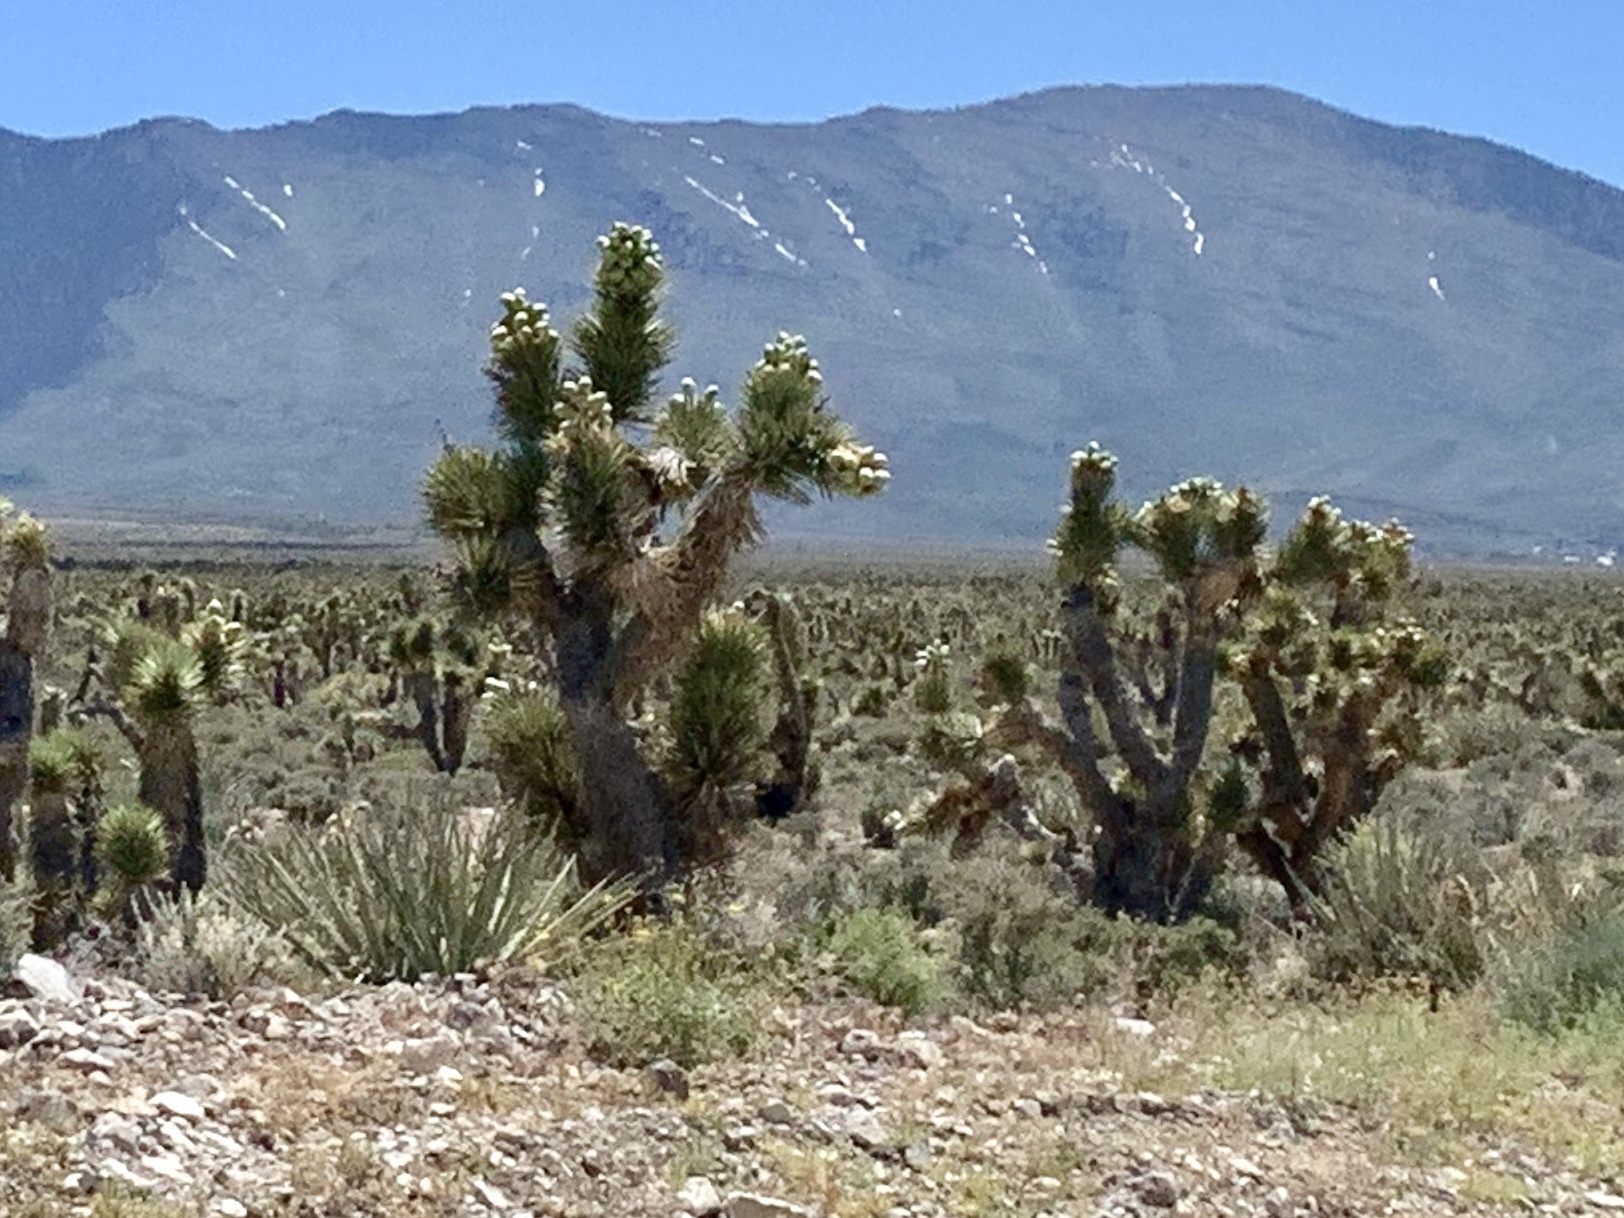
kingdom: Plantae
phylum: Tracheophyta
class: Liliopsida
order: Asparagales
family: Asparagaceae
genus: Yucca
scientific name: Yucca brevifolia
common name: Joshua tree
